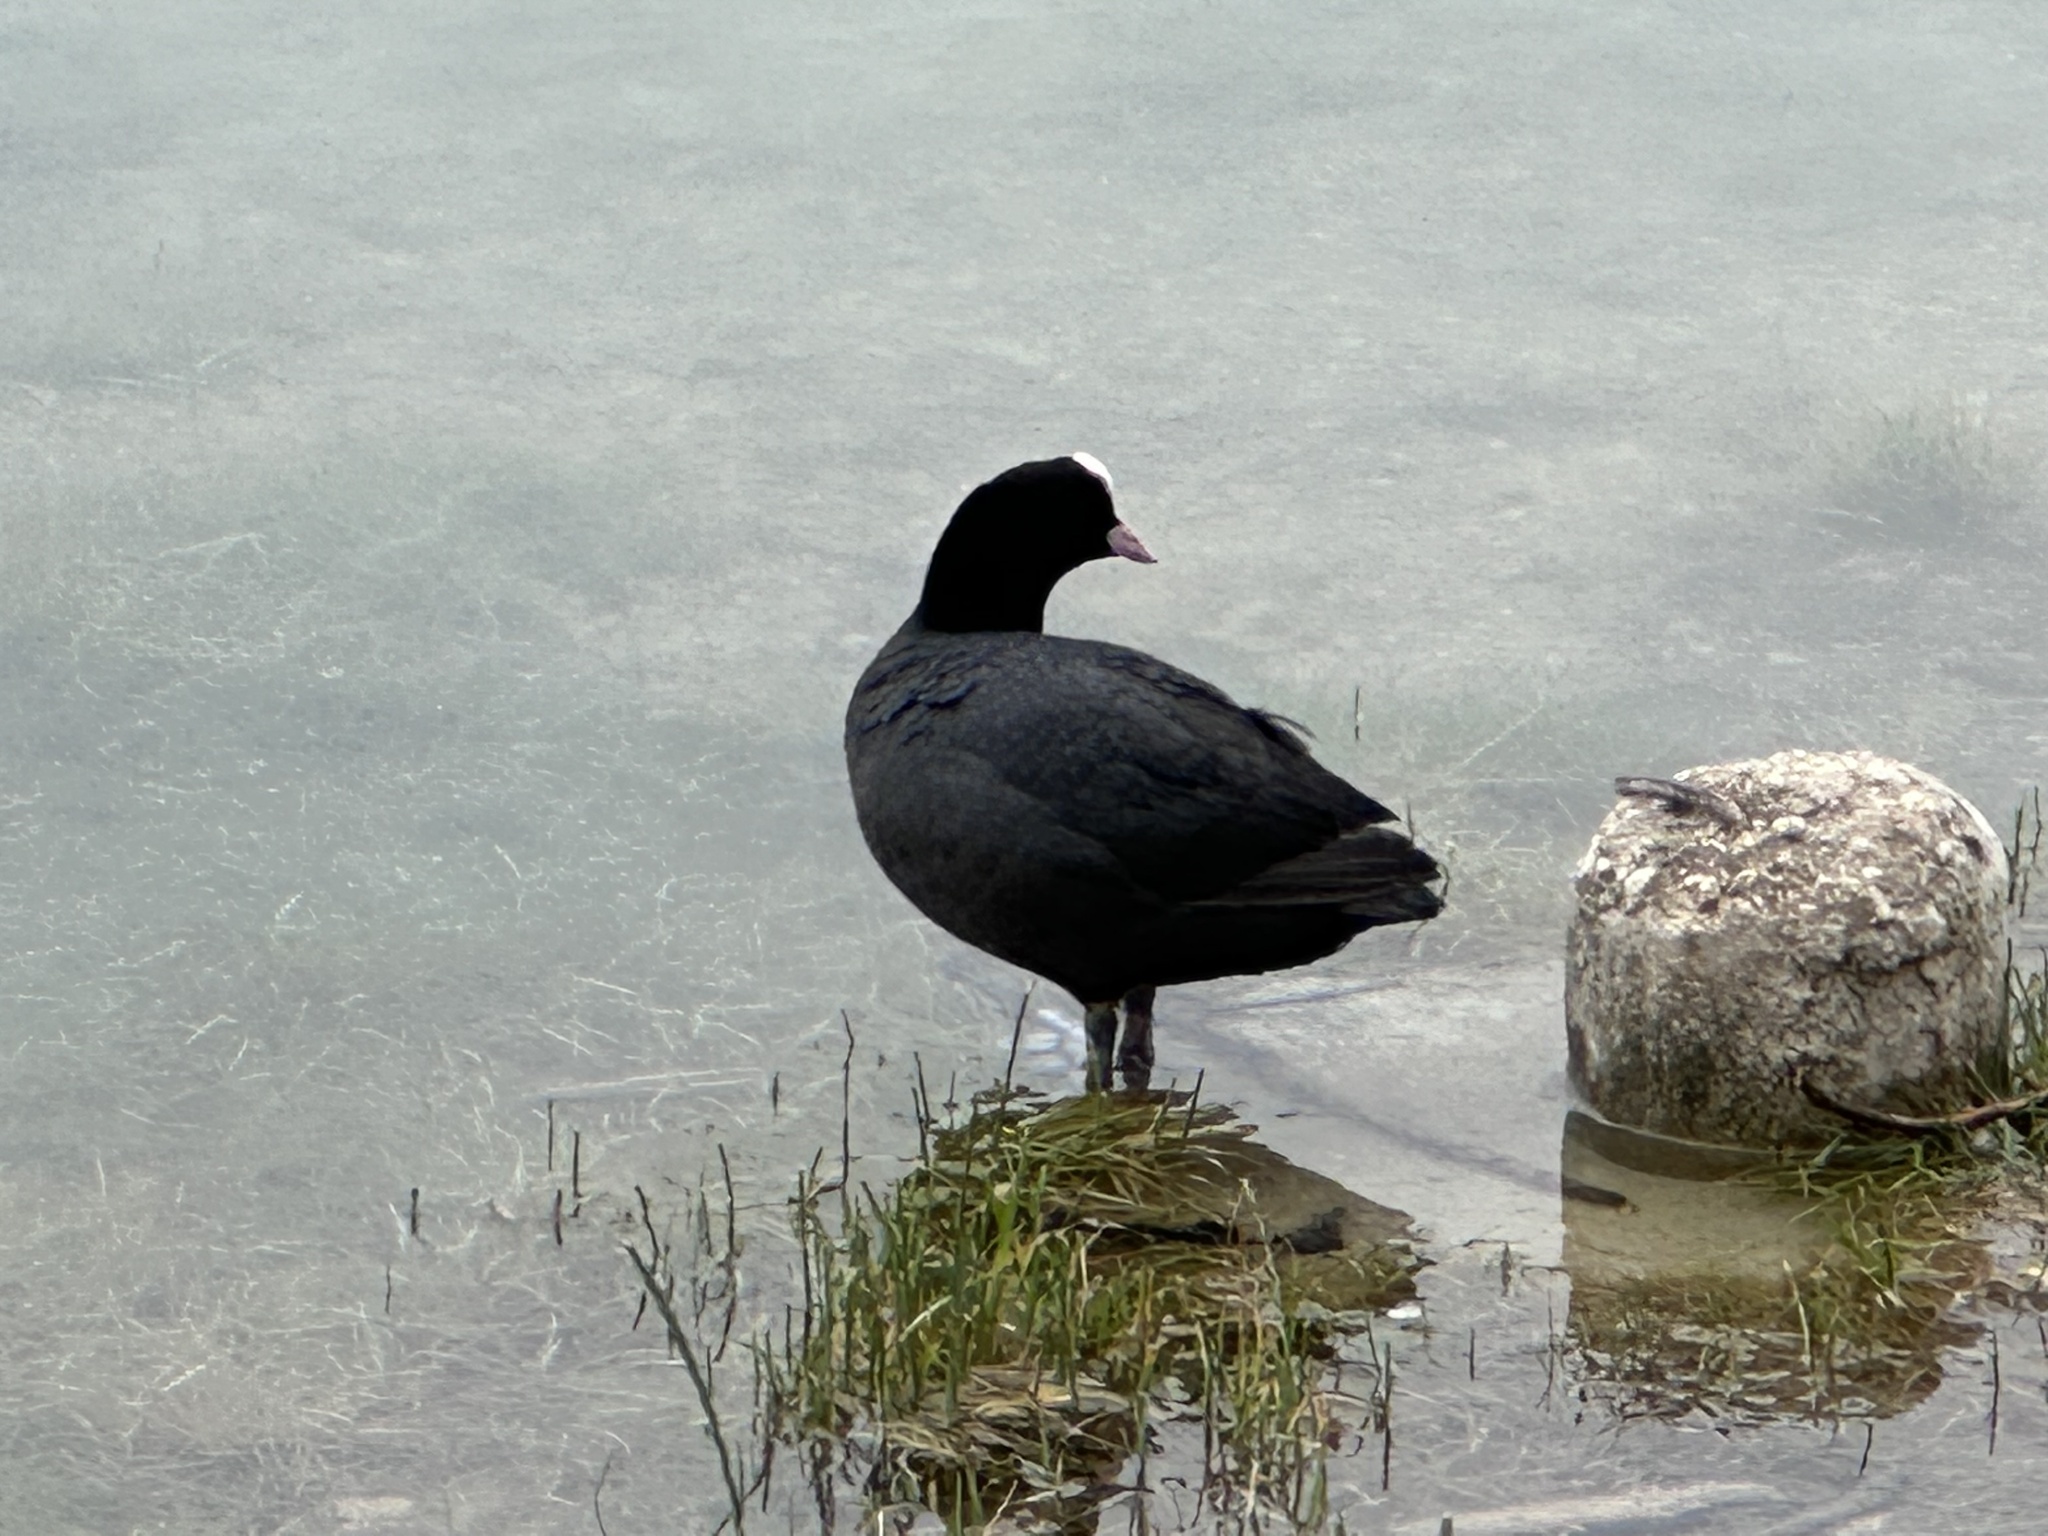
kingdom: Animalia
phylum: Chordata
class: Aves
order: Gruiformes
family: Rallidae
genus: Fulica
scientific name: Fulica atra
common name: Eurasian coot
